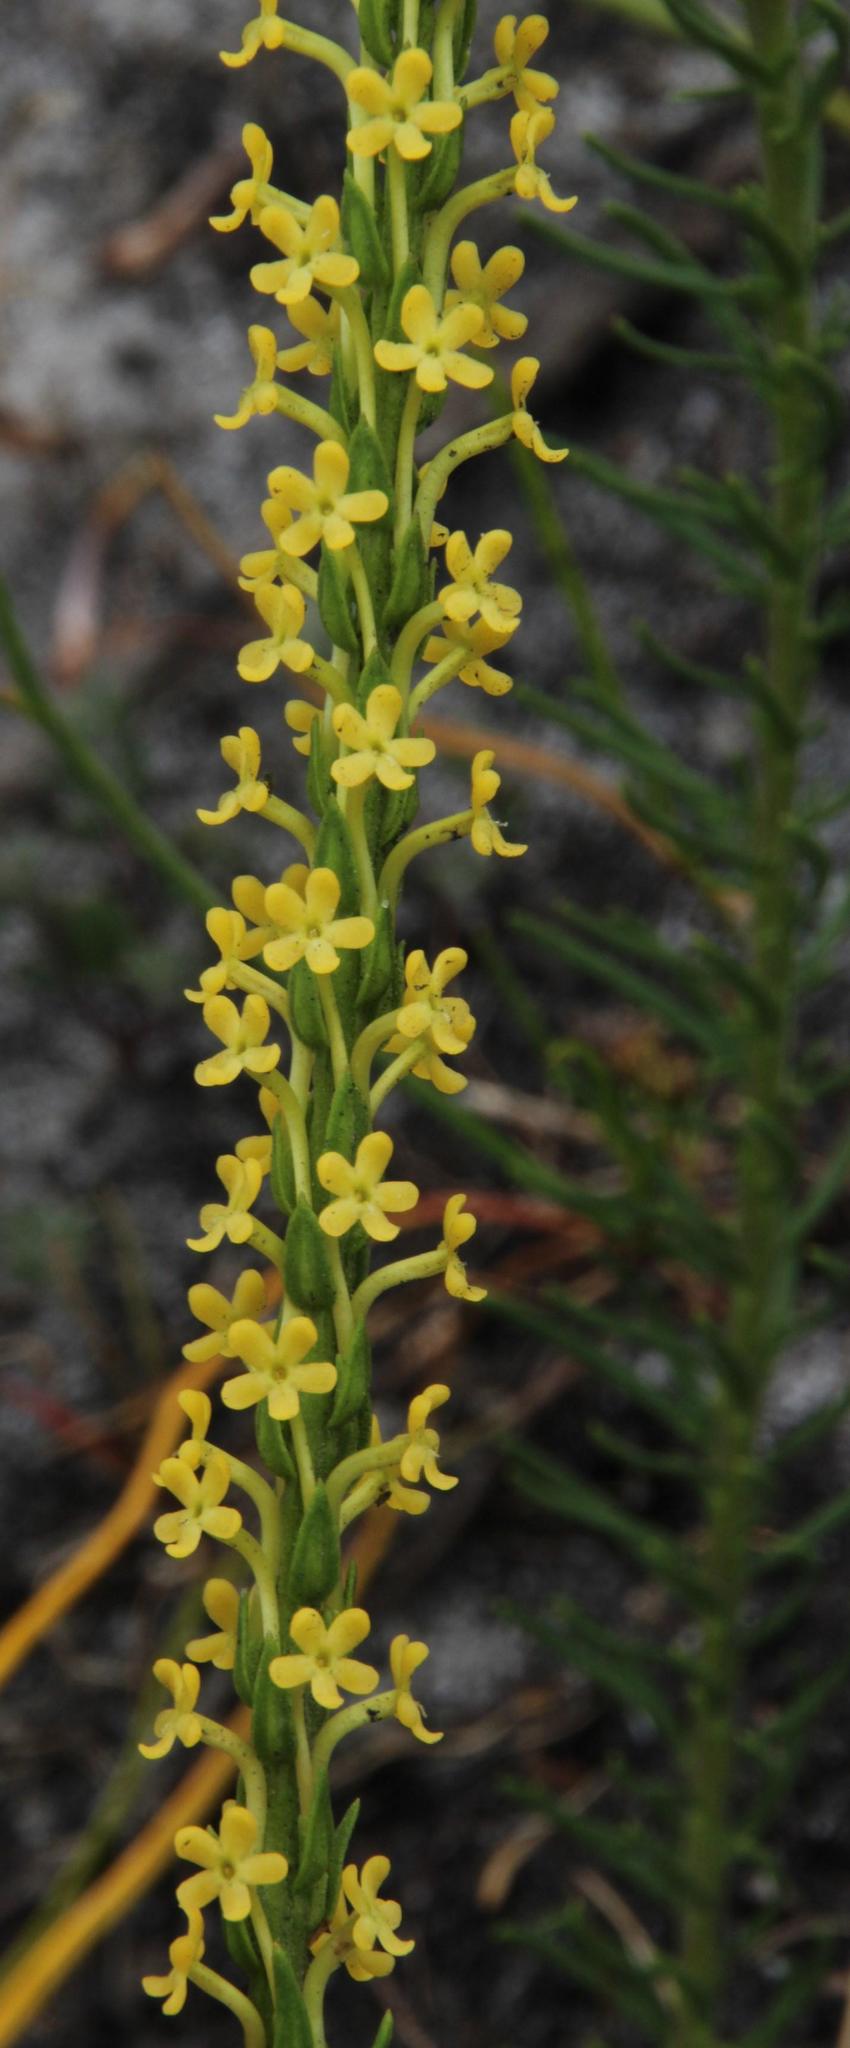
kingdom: Plantae
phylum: Tracheophyta
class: Magnoliopsida
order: Lamiales
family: Scrophulariaceae
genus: Microdon
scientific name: Microdon dubius
